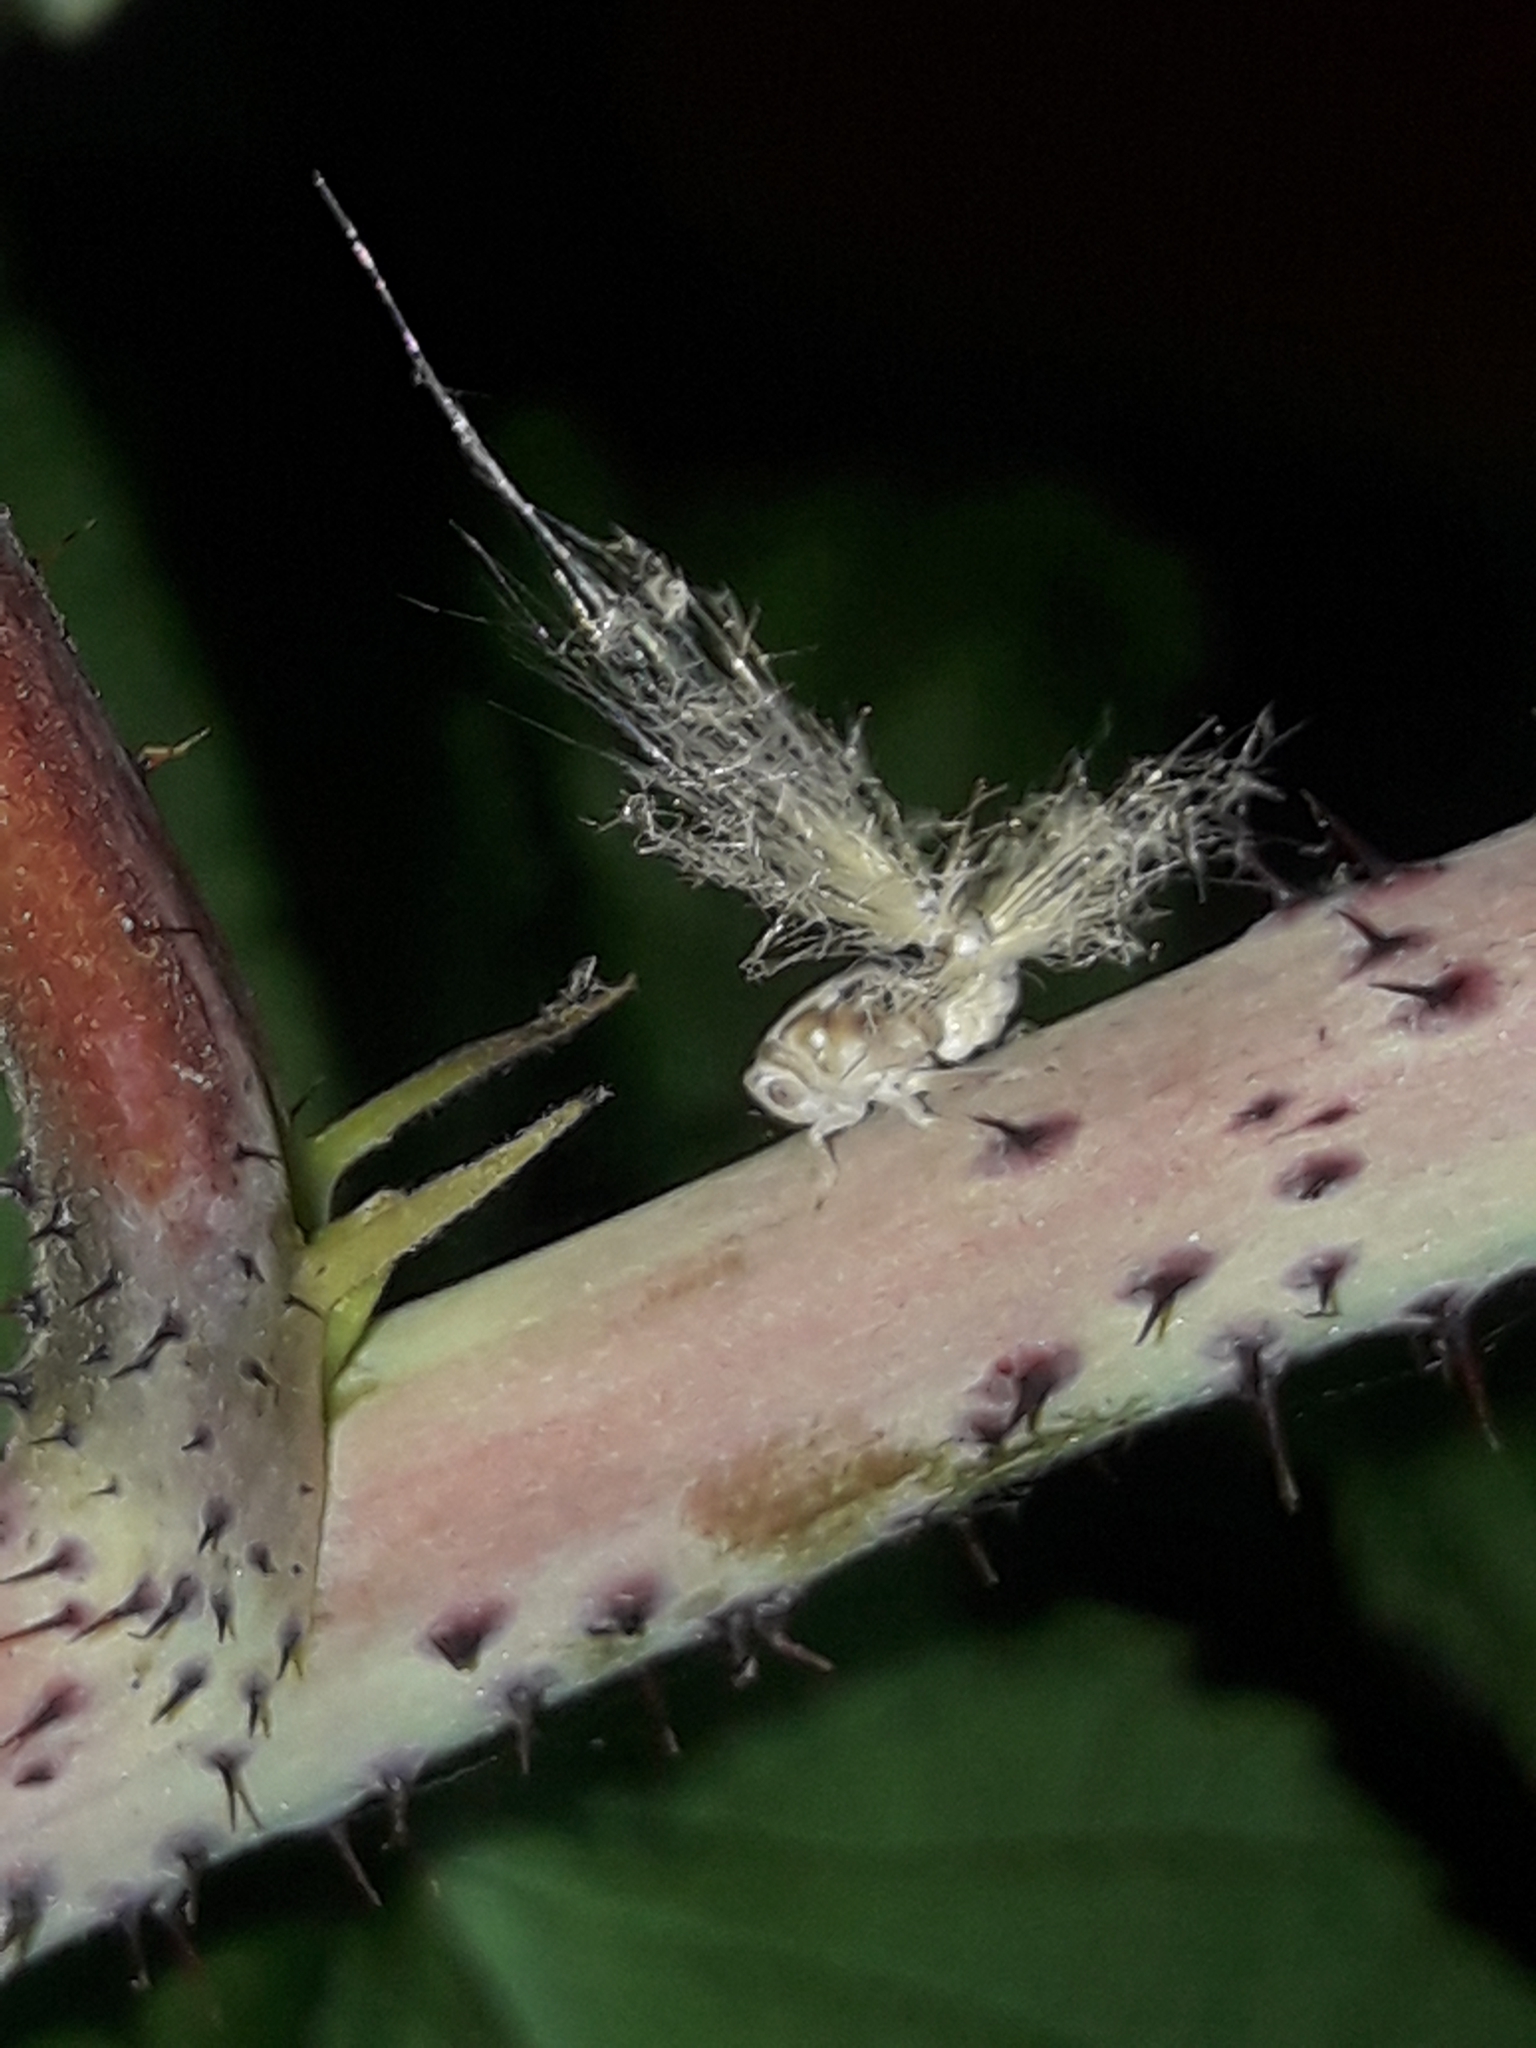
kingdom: Animalia
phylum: Arthropoda
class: Insecta
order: Hemiptera
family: Ricaniidae
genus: Scolypopa
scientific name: Scolypopa australis
